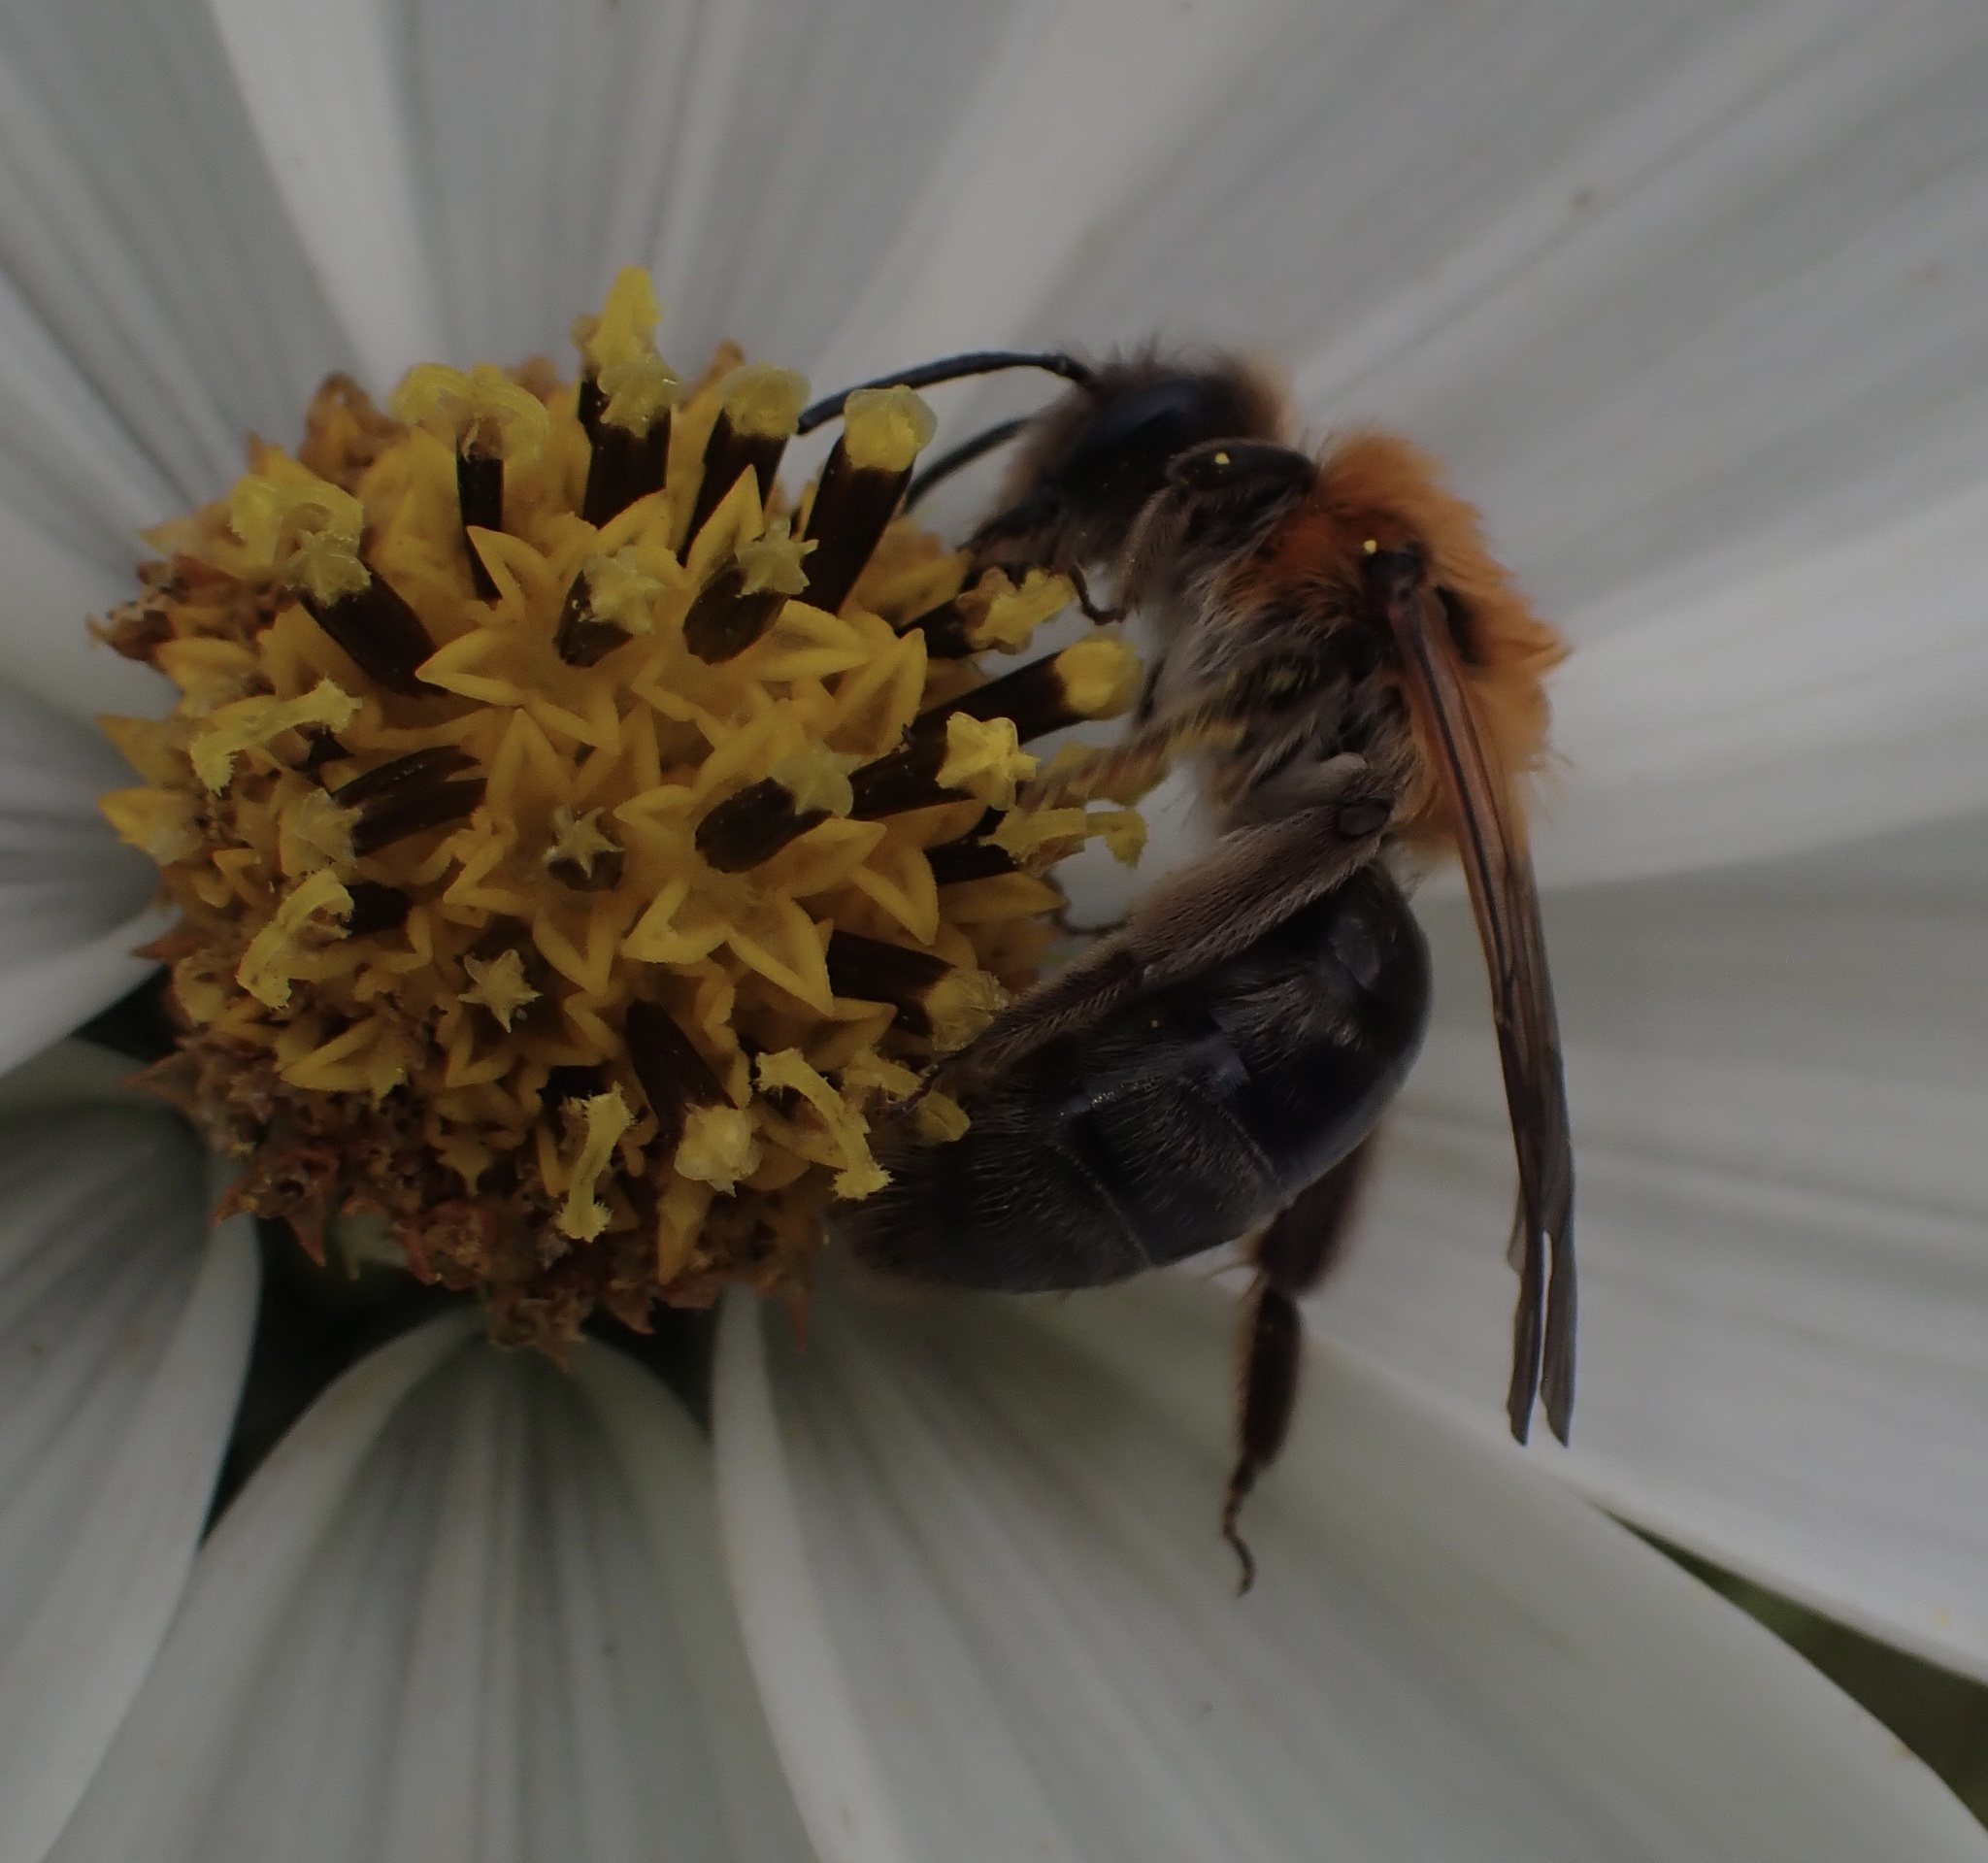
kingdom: Animalia
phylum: Arthropoda
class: Insecta
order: Hymenoptera
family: Andrenidae
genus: Andrena
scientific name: Andrena nitida
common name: Grey-patched mining bee
